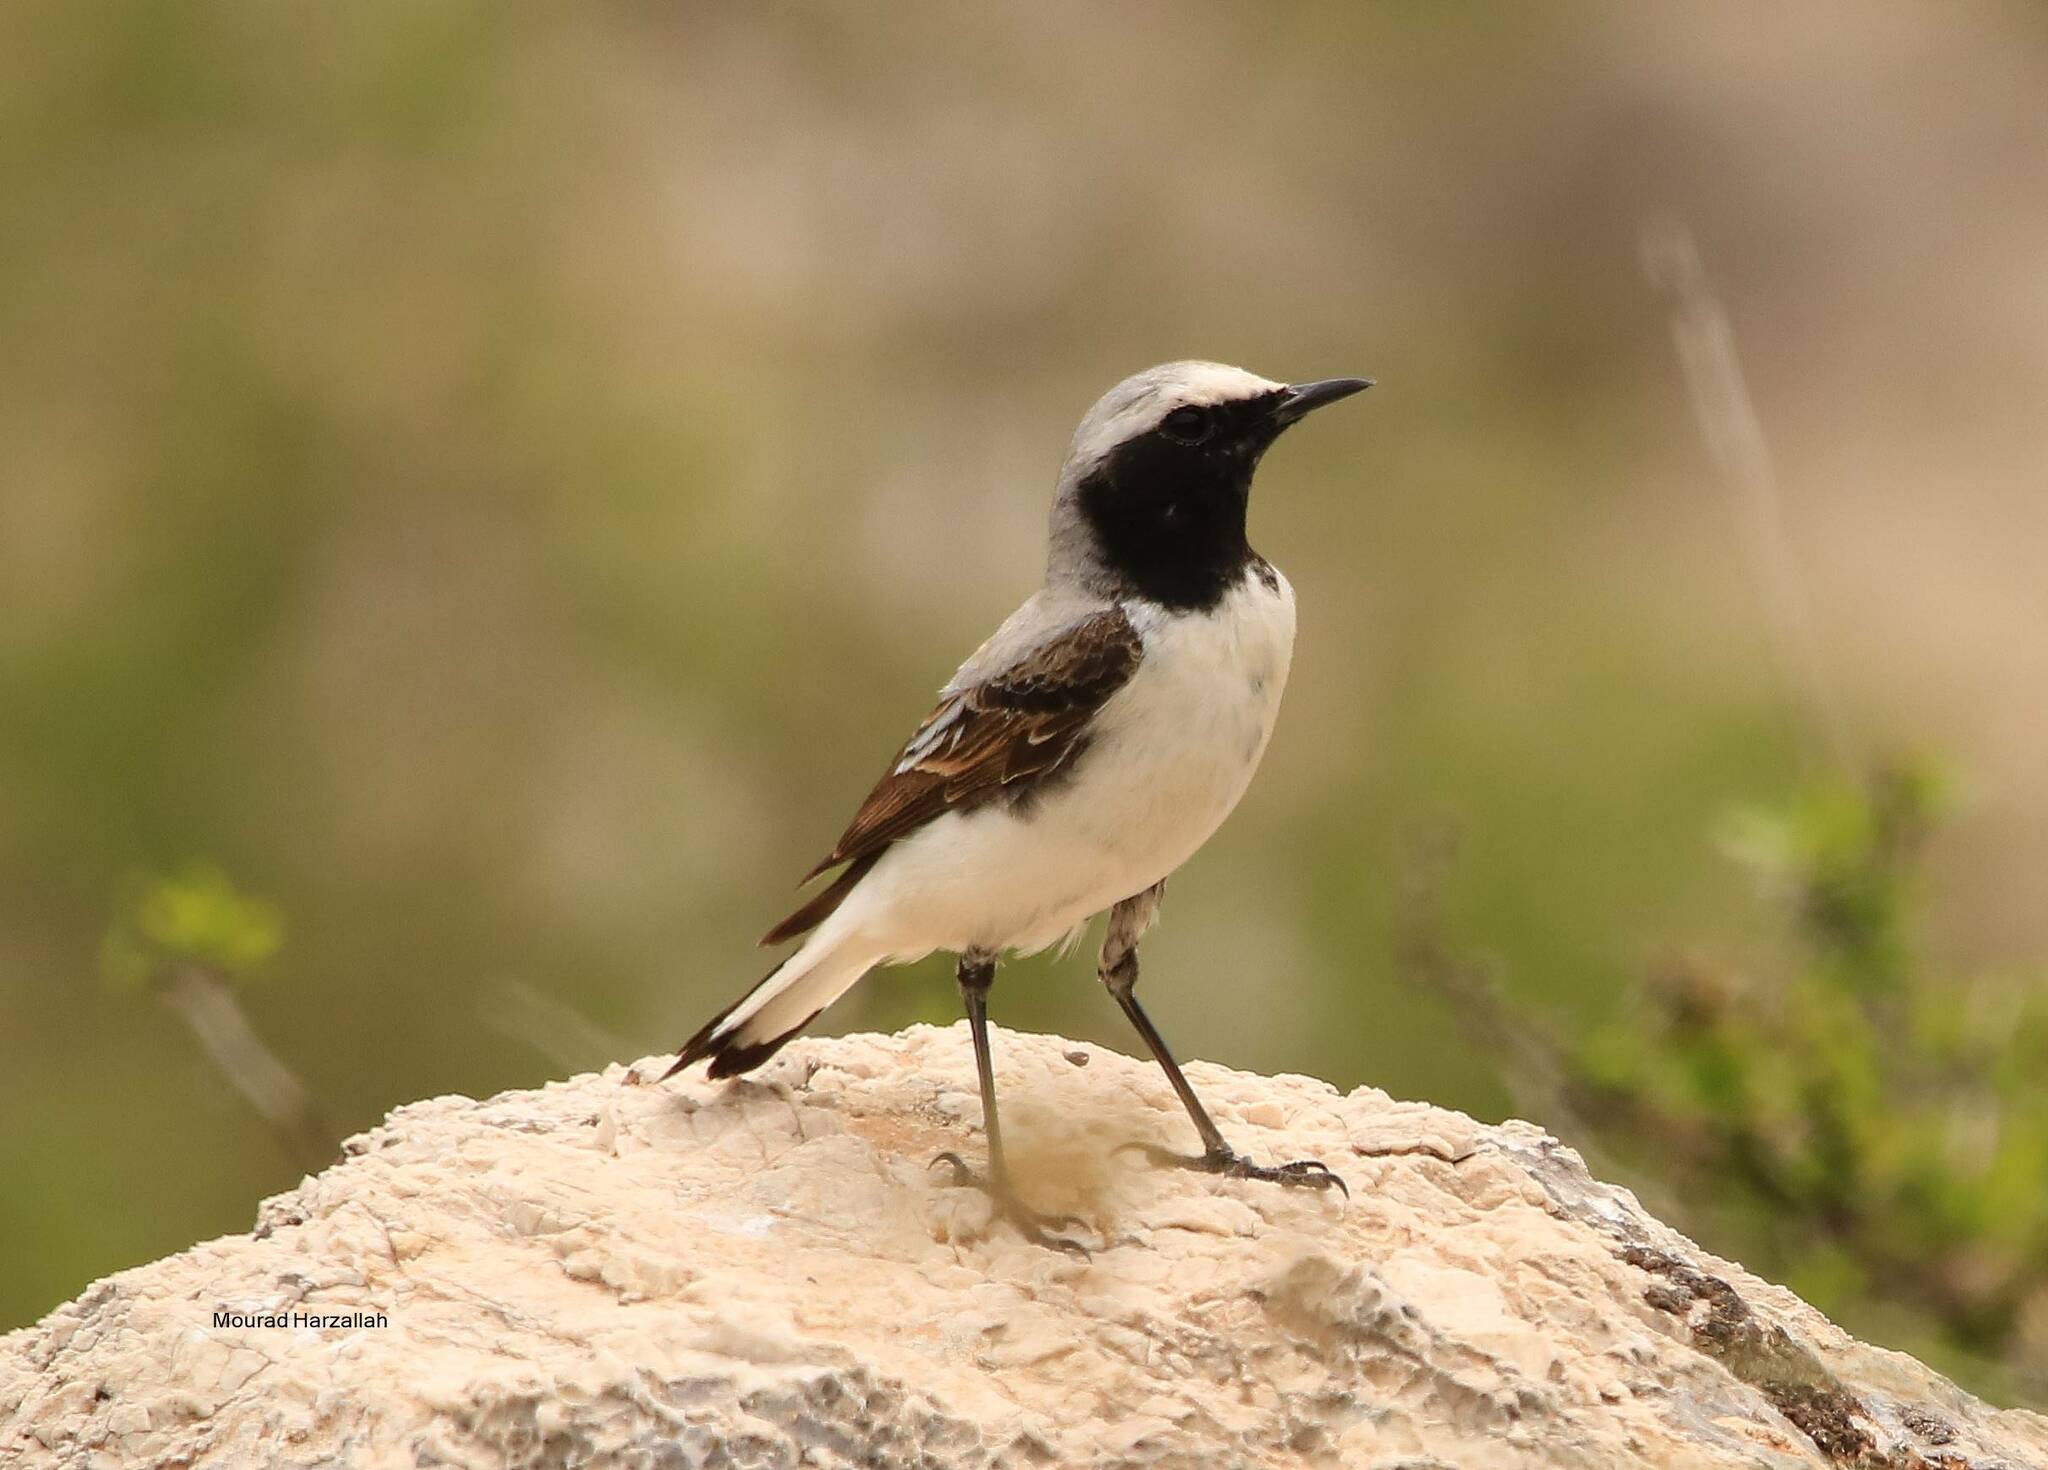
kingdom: Animalia
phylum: Chordata
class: Aves
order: Passeriformes
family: Muscicapidae
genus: Oenanthe
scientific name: Oenanthe oenanthe
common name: Northern wheatear
